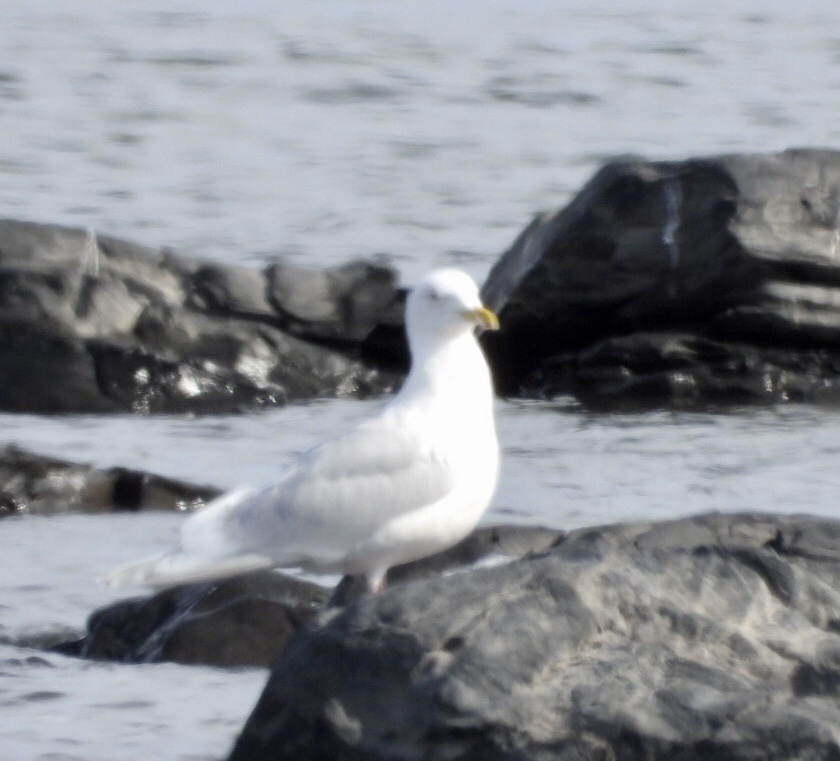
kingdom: Animalia
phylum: Chordata
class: Aves
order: Charadriiformes
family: Laridae
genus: Larus
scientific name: Larus glaucoides
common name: Iceland gull
